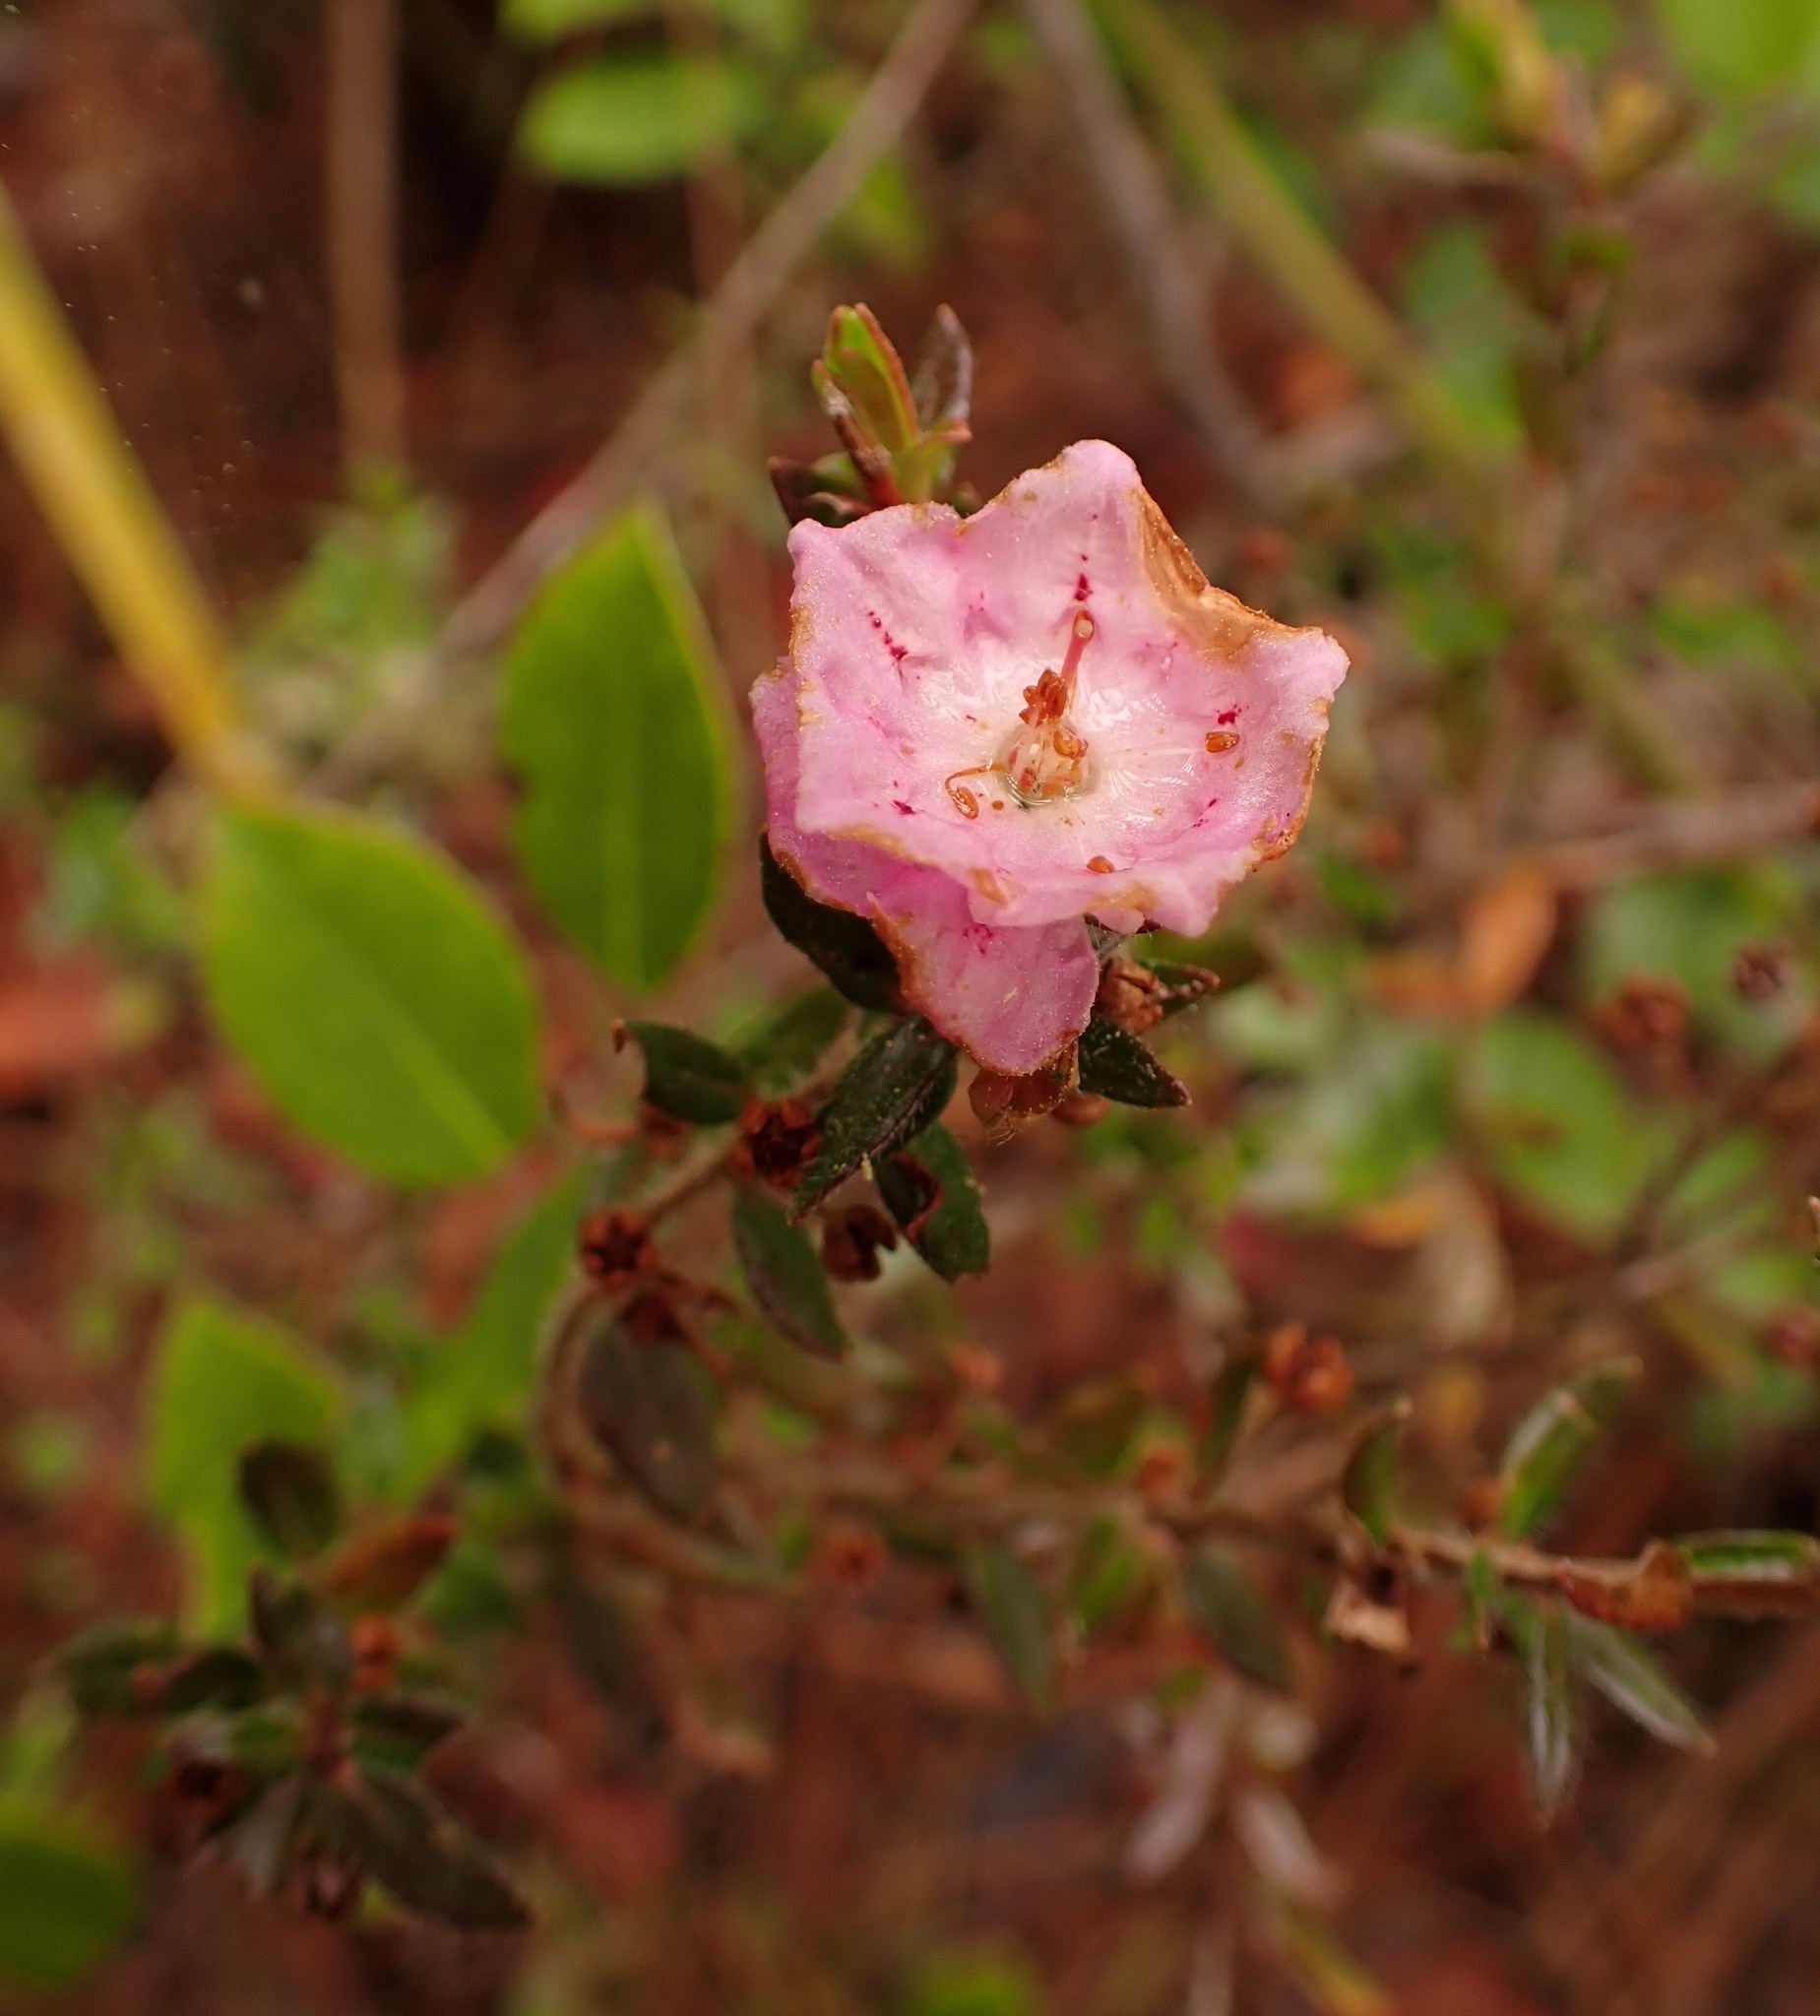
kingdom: Plantae
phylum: Tracheophyta
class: Magnoliopsida
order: Ericales
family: Ericaceae
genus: Kalmia
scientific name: Kalmia hirsuta
